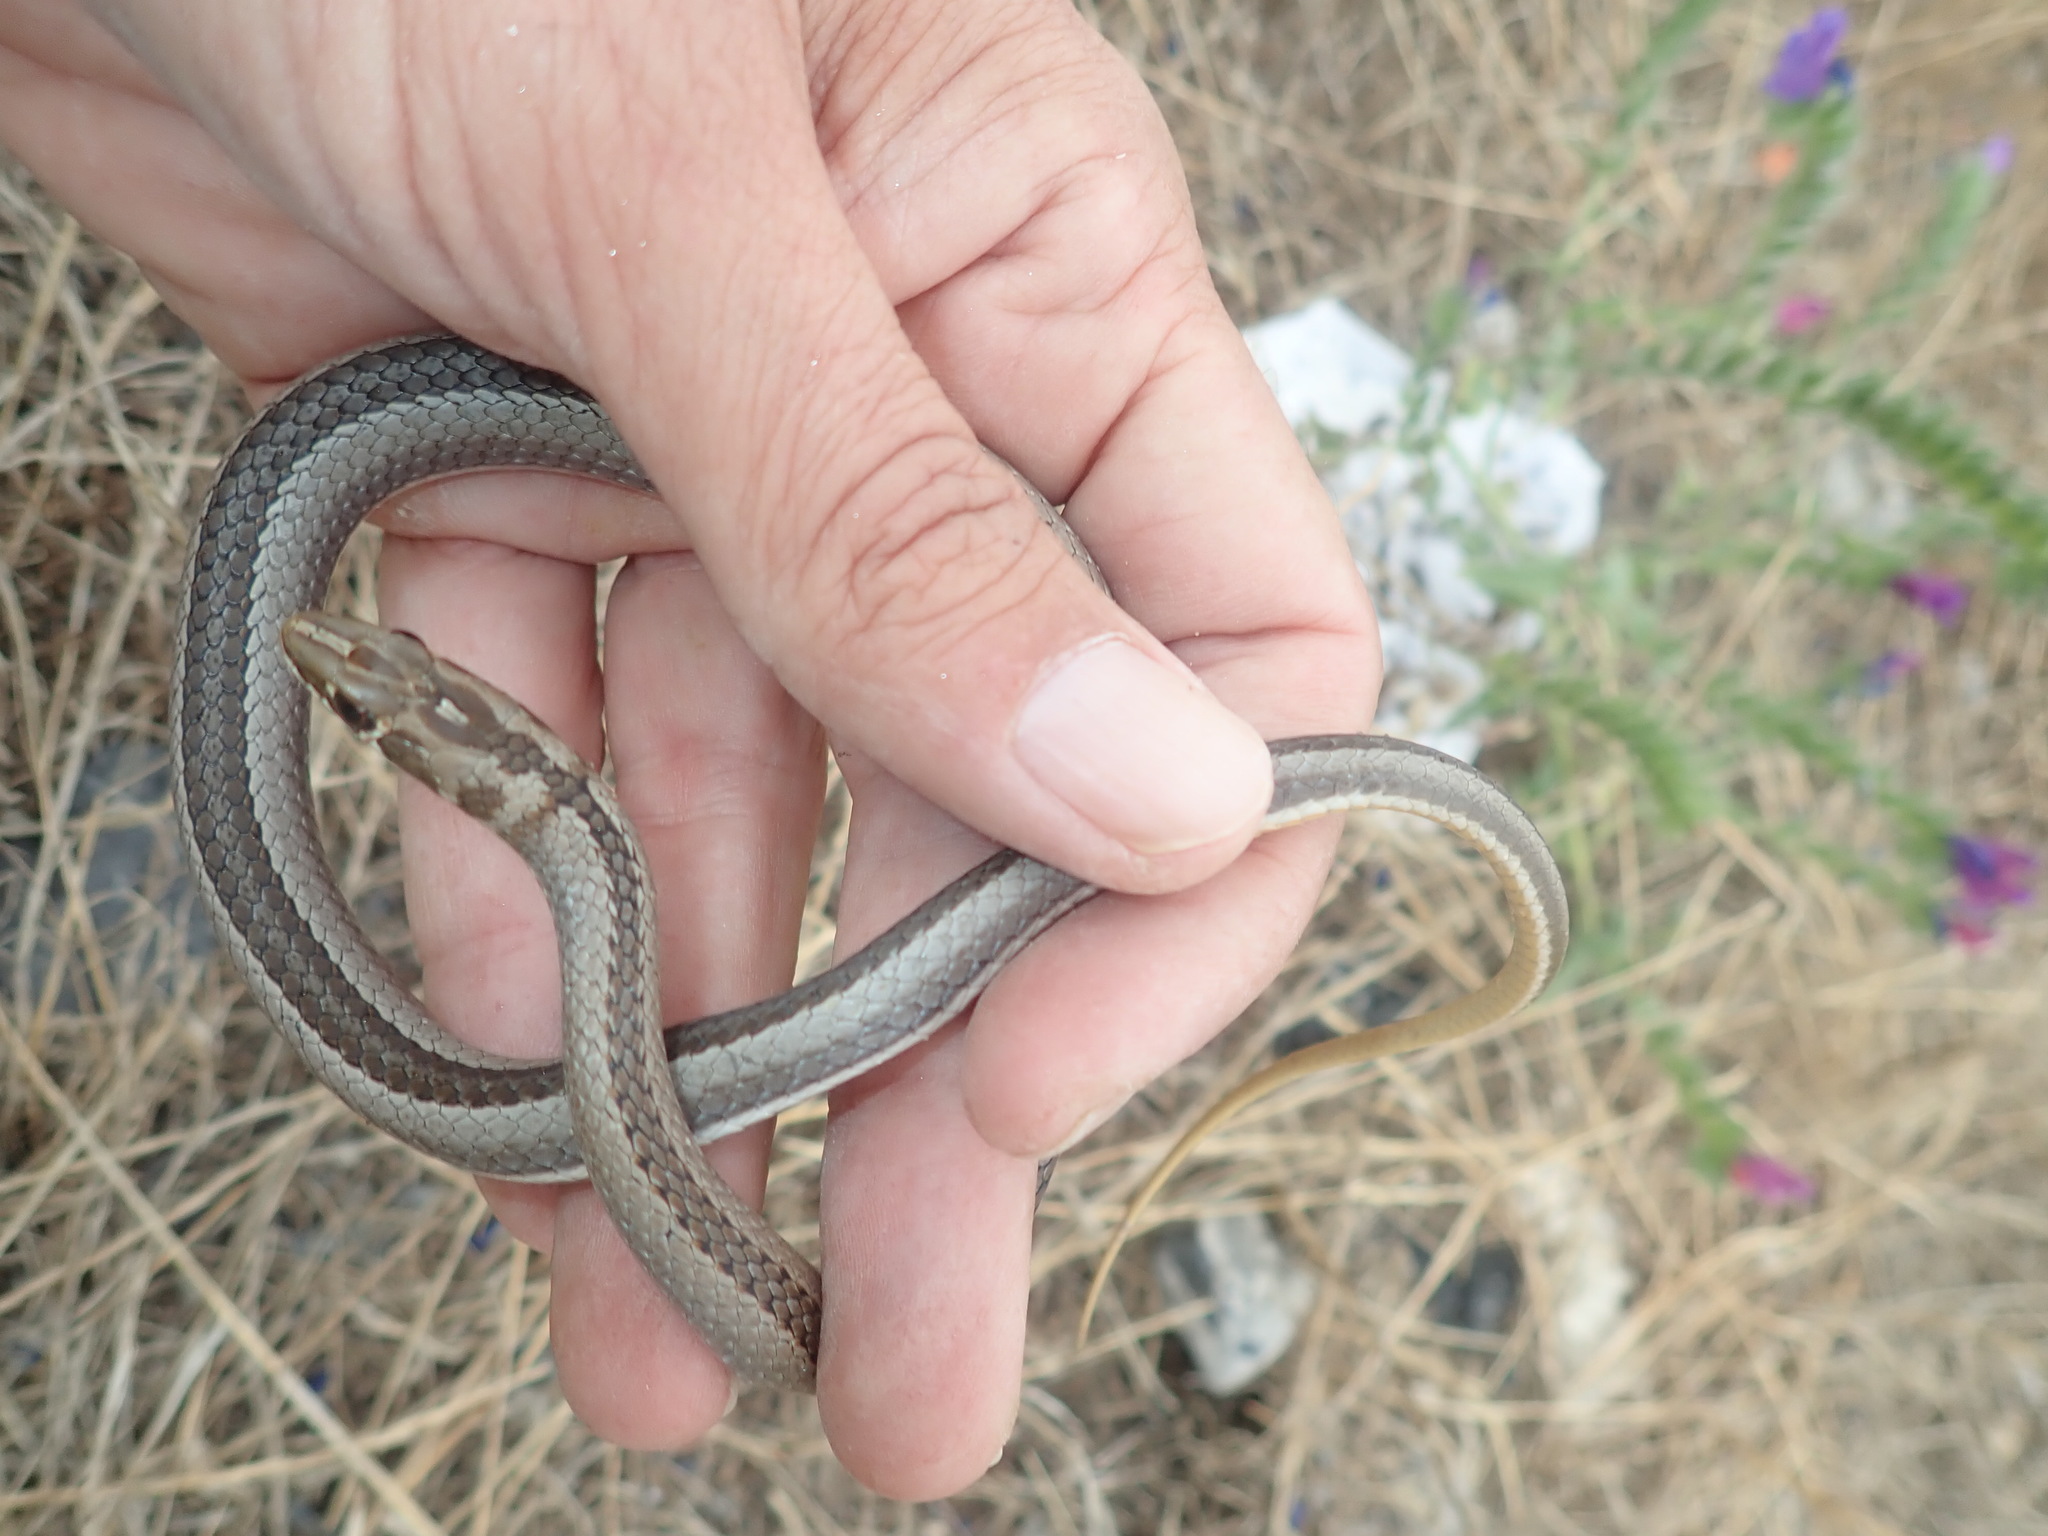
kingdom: Animalia
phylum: Chordata
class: Squamata
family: Psammophiidae
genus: Psammophis
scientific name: Psammophis crucifer
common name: Cross-marked grass snake
